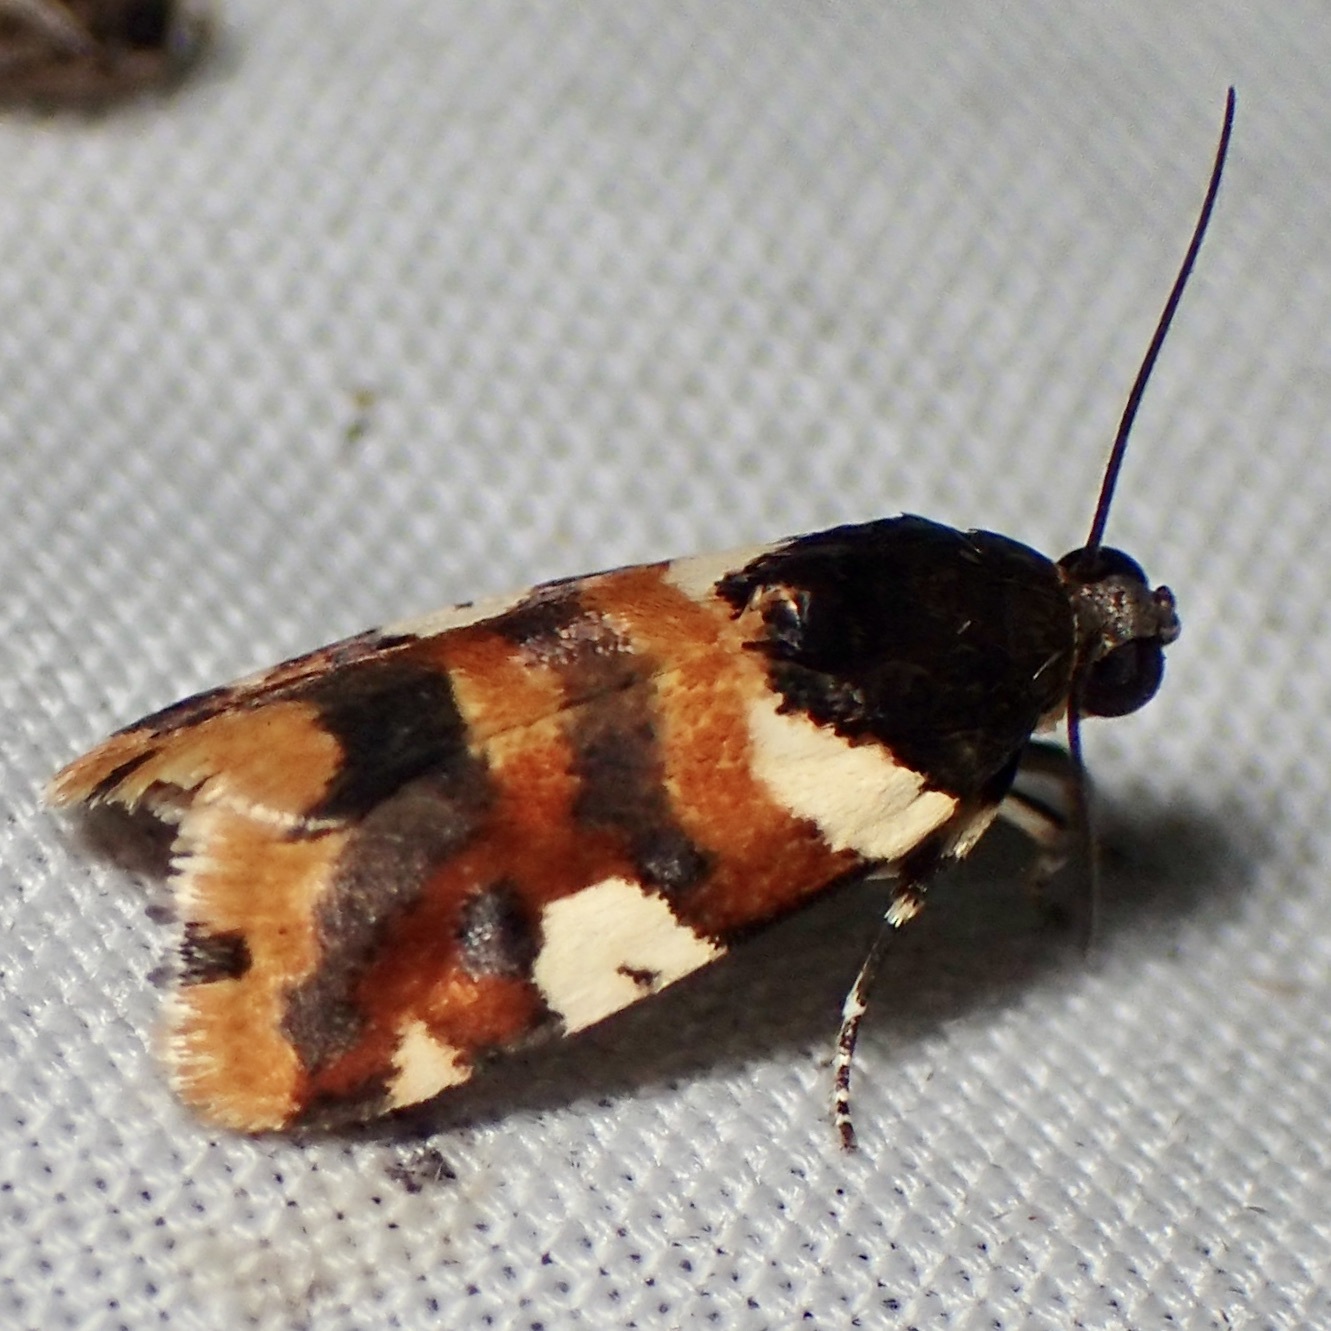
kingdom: Animalia
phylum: Arthropoda
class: Insecta
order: Lepidoptera
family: Noctuidae
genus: Acontia
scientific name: Acontia dama
